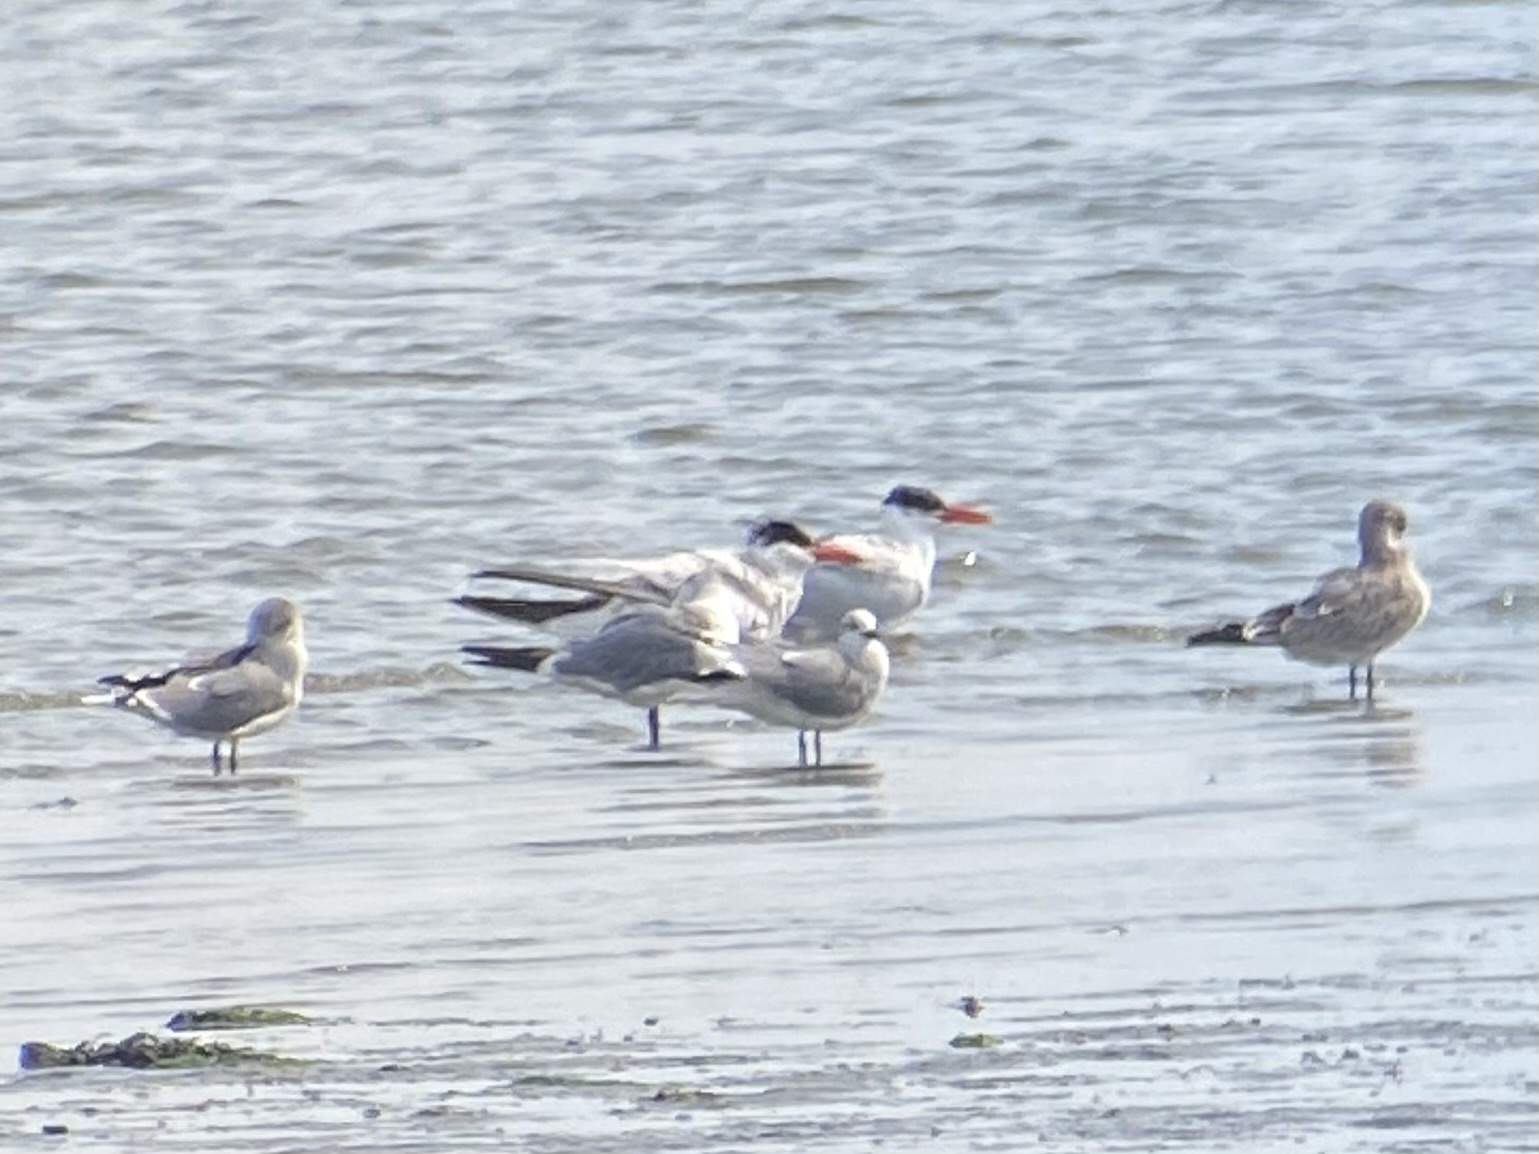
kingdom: Animalia
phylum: Chordata
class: Aves
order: Charadriiformes
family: Laridae
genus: Hydroprogne
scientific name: Hydroprogne caspia
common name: Caspian tern
